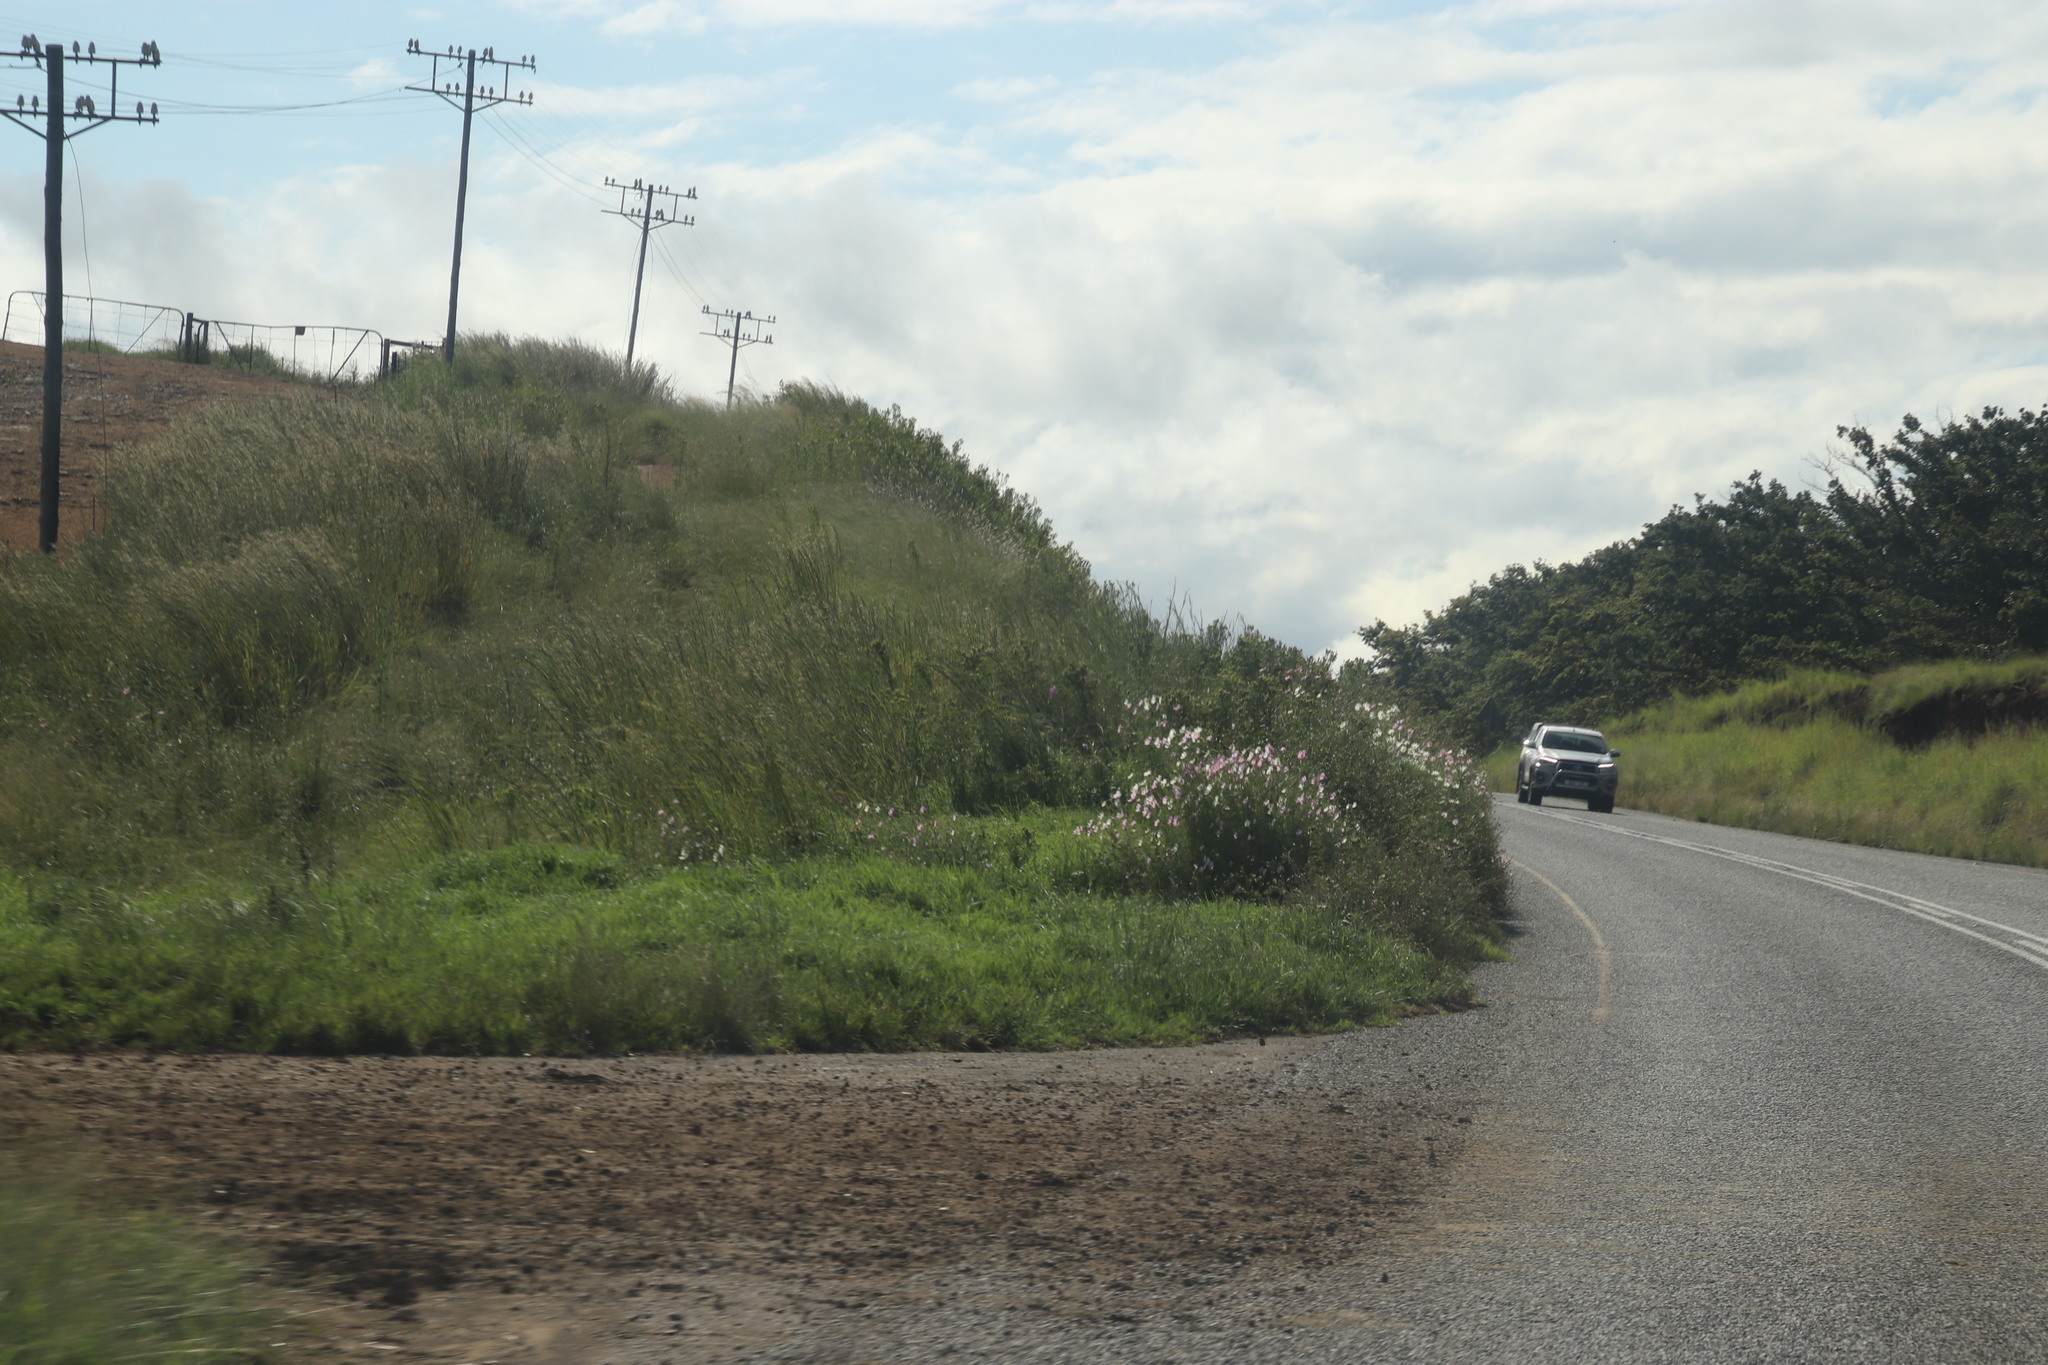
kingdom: Plantae
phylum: Tracheophyta
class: Magnoliopsida
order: Asterales
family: Asteraceae
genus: Cosmos
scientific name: Cosmos bipinnatus
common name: Garden cosmos
